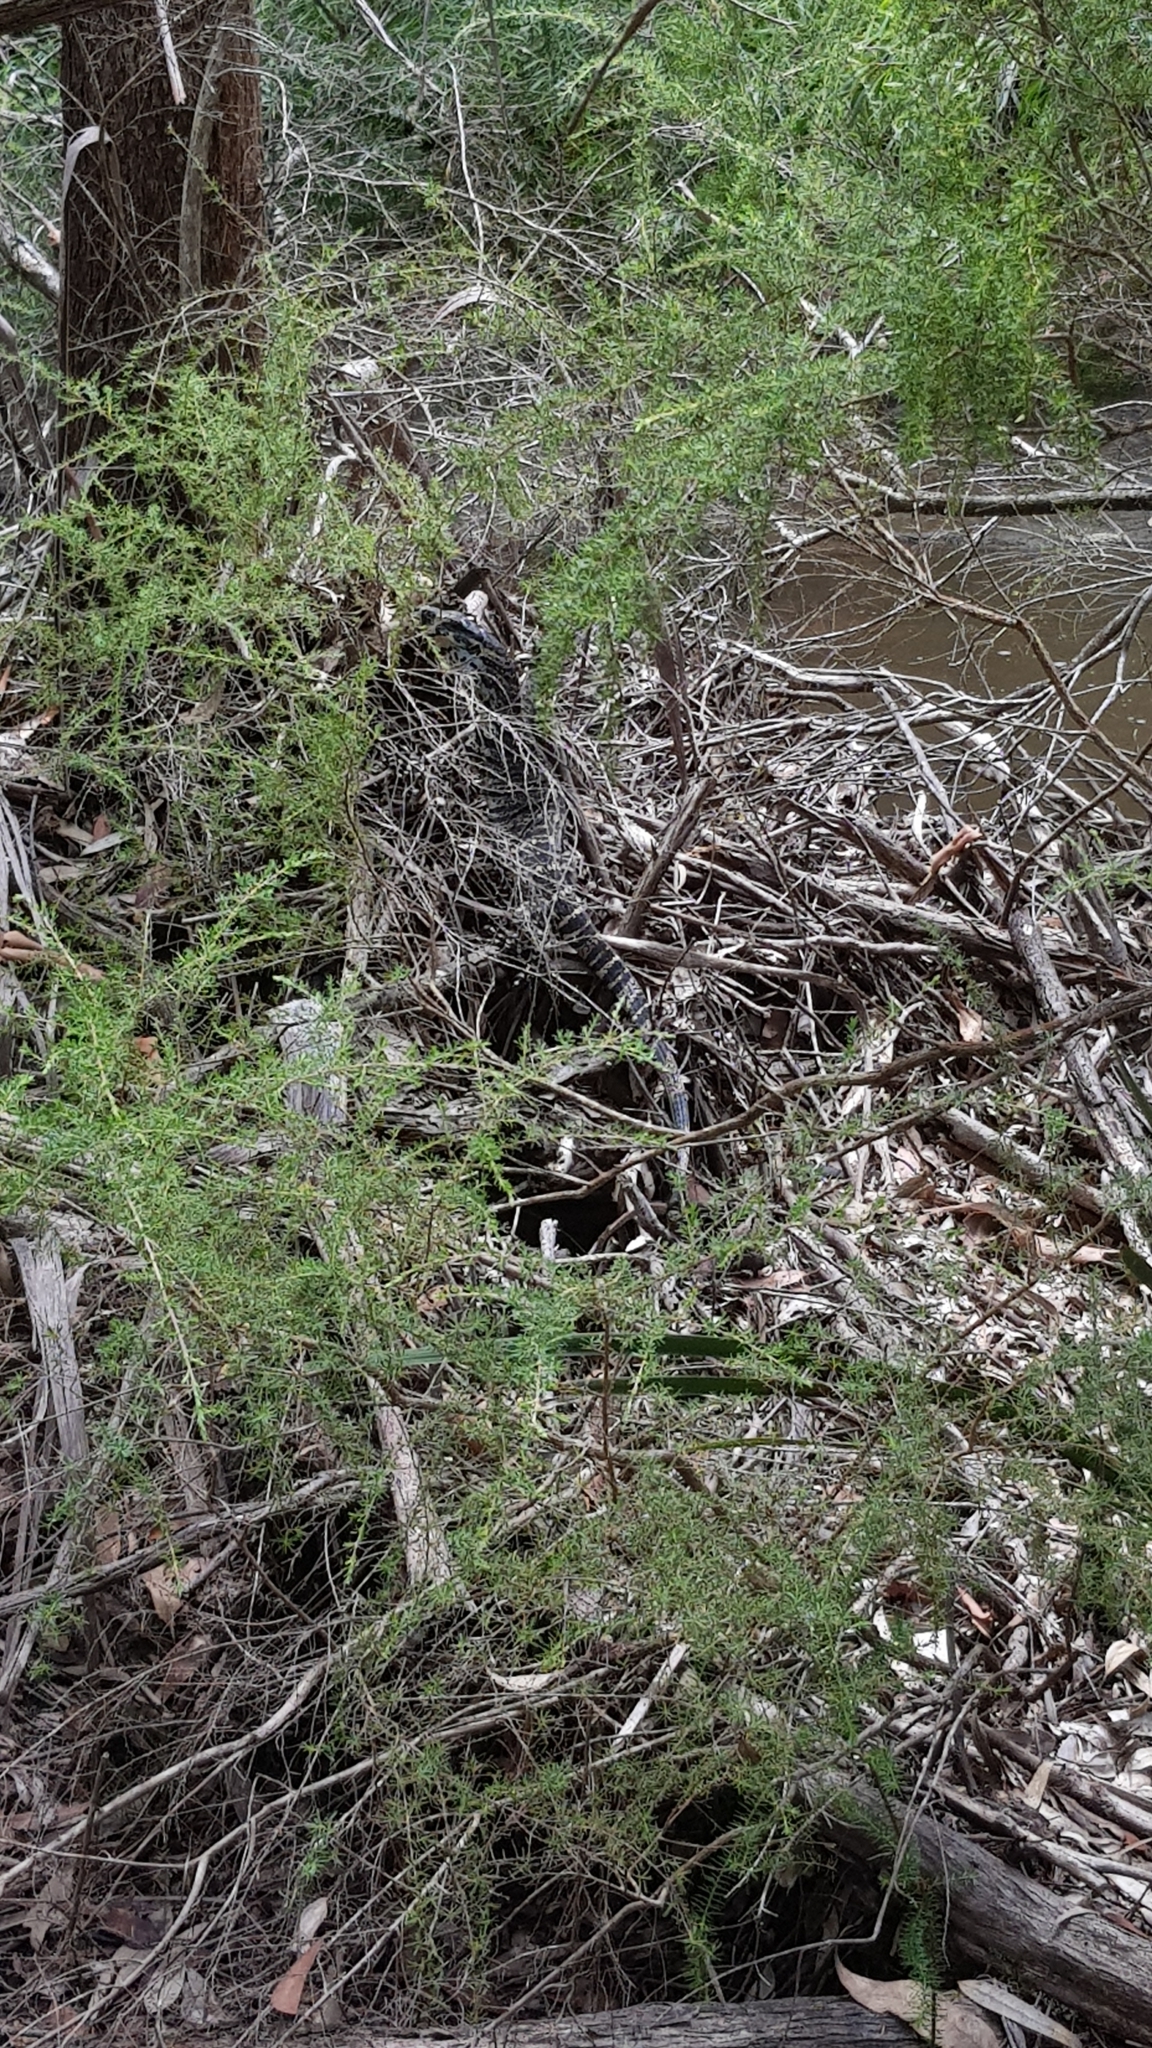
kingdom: Animalia
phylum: Chordata
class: Squamata
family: Varanidae
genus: Varanus
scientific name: Varanus varius
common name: Lace monitor
